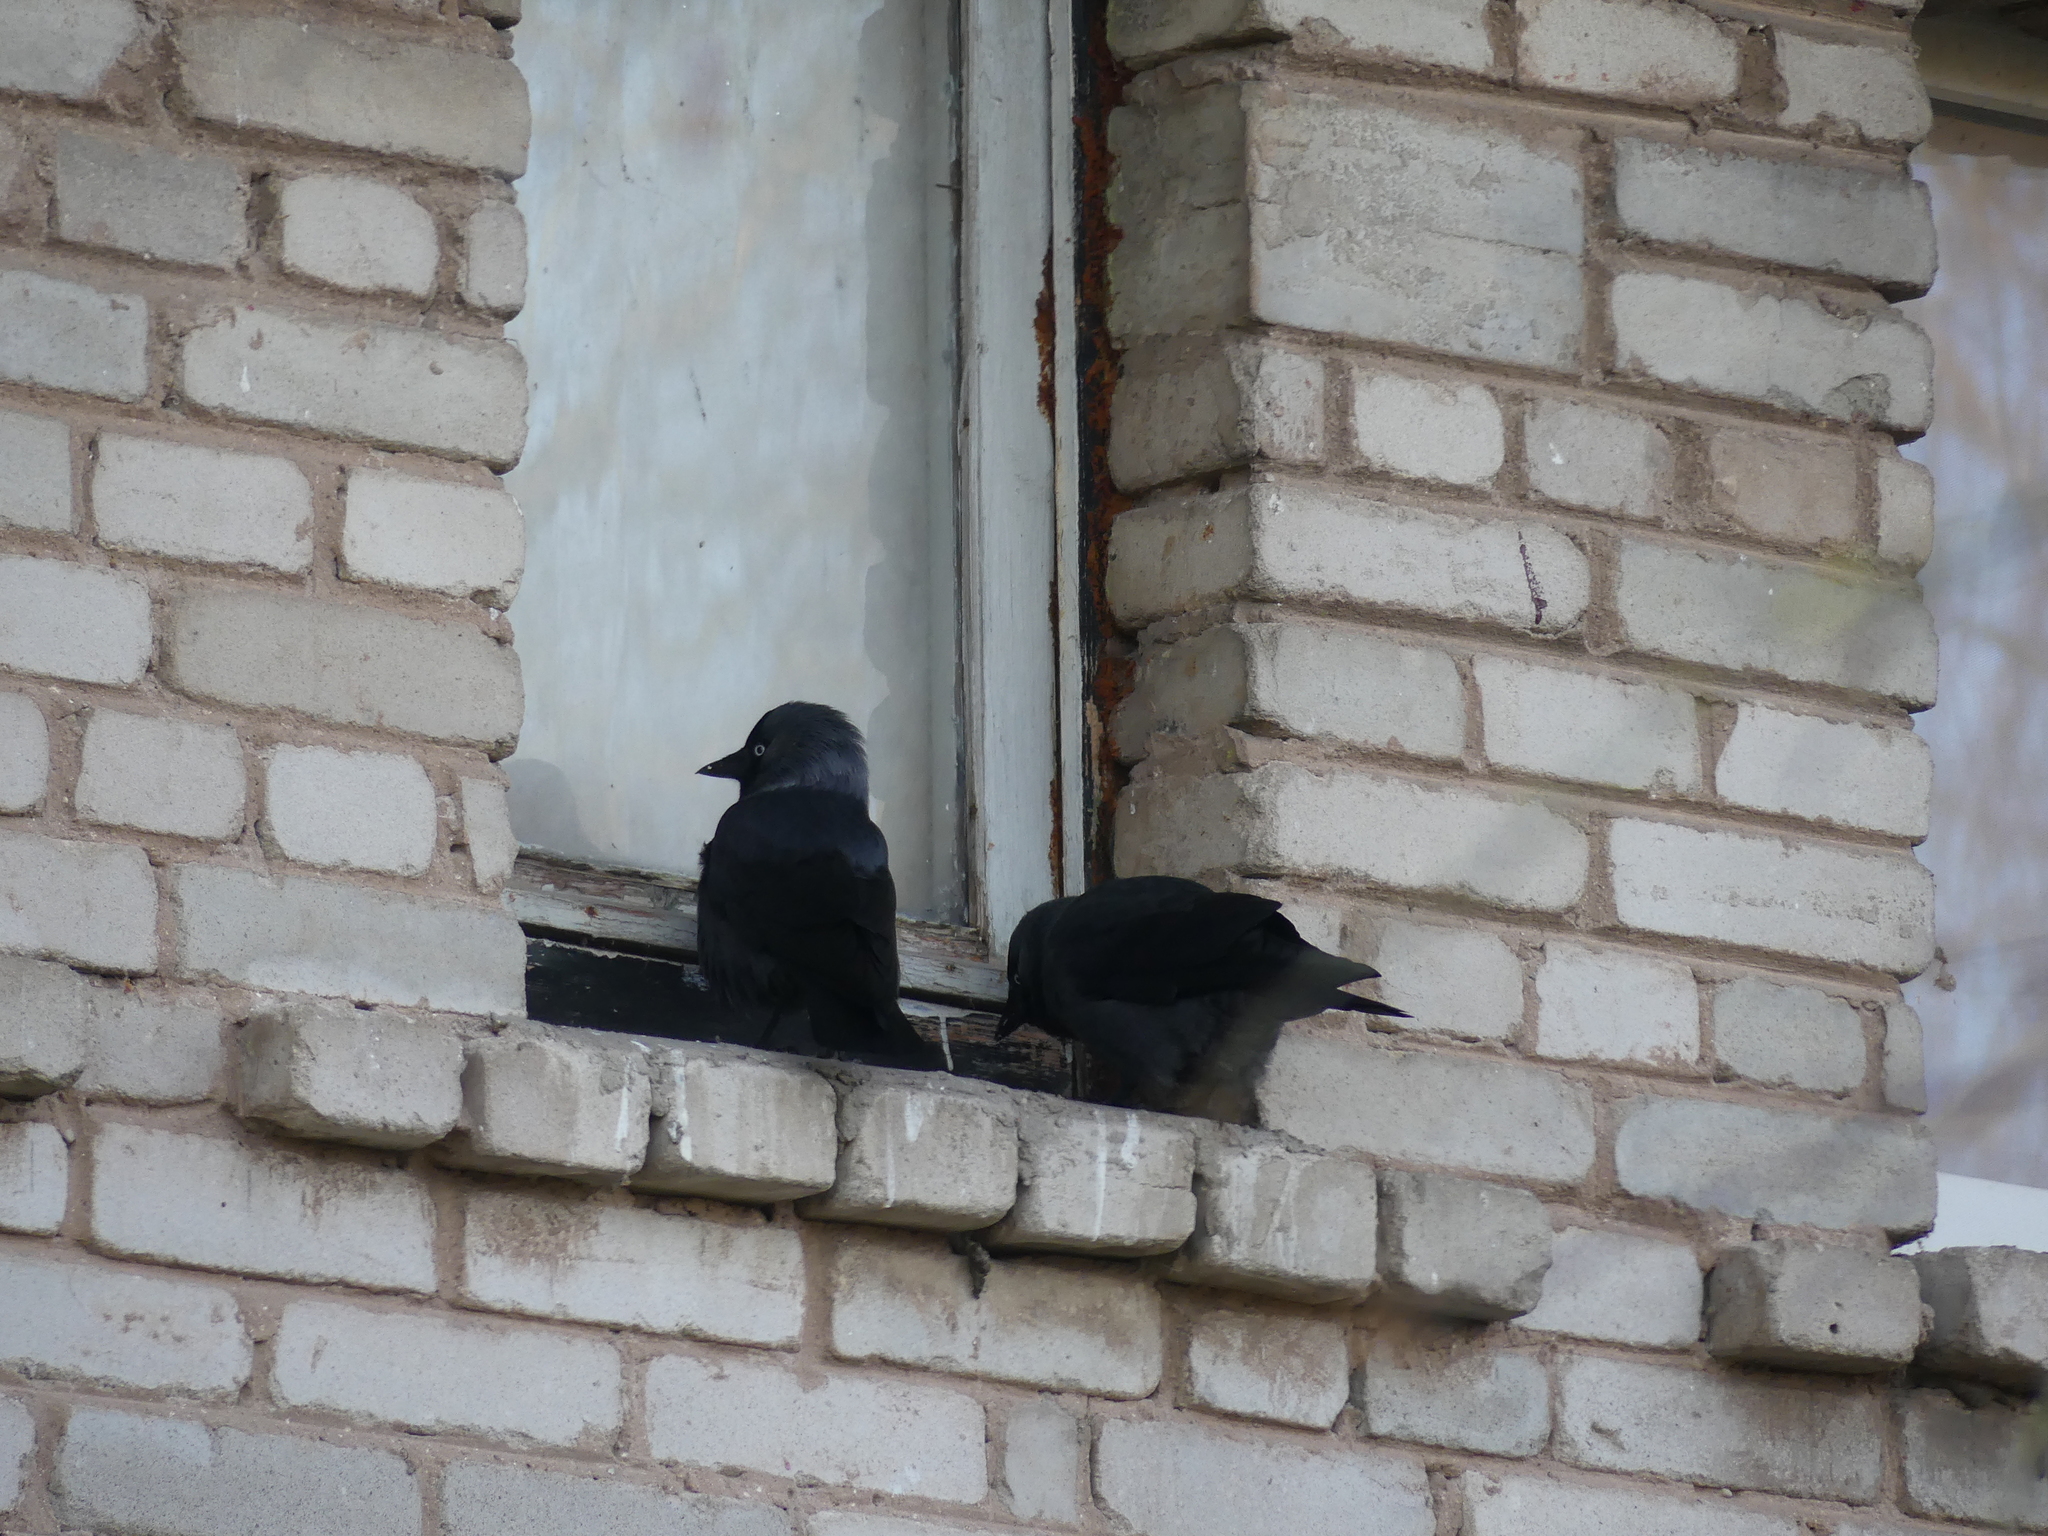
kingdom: Animalia
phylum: Chordata
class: Aves
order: Passeriformes
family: Corvidae
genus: Coloeus
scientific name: Coloeus monedula
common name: Western jackdaw
